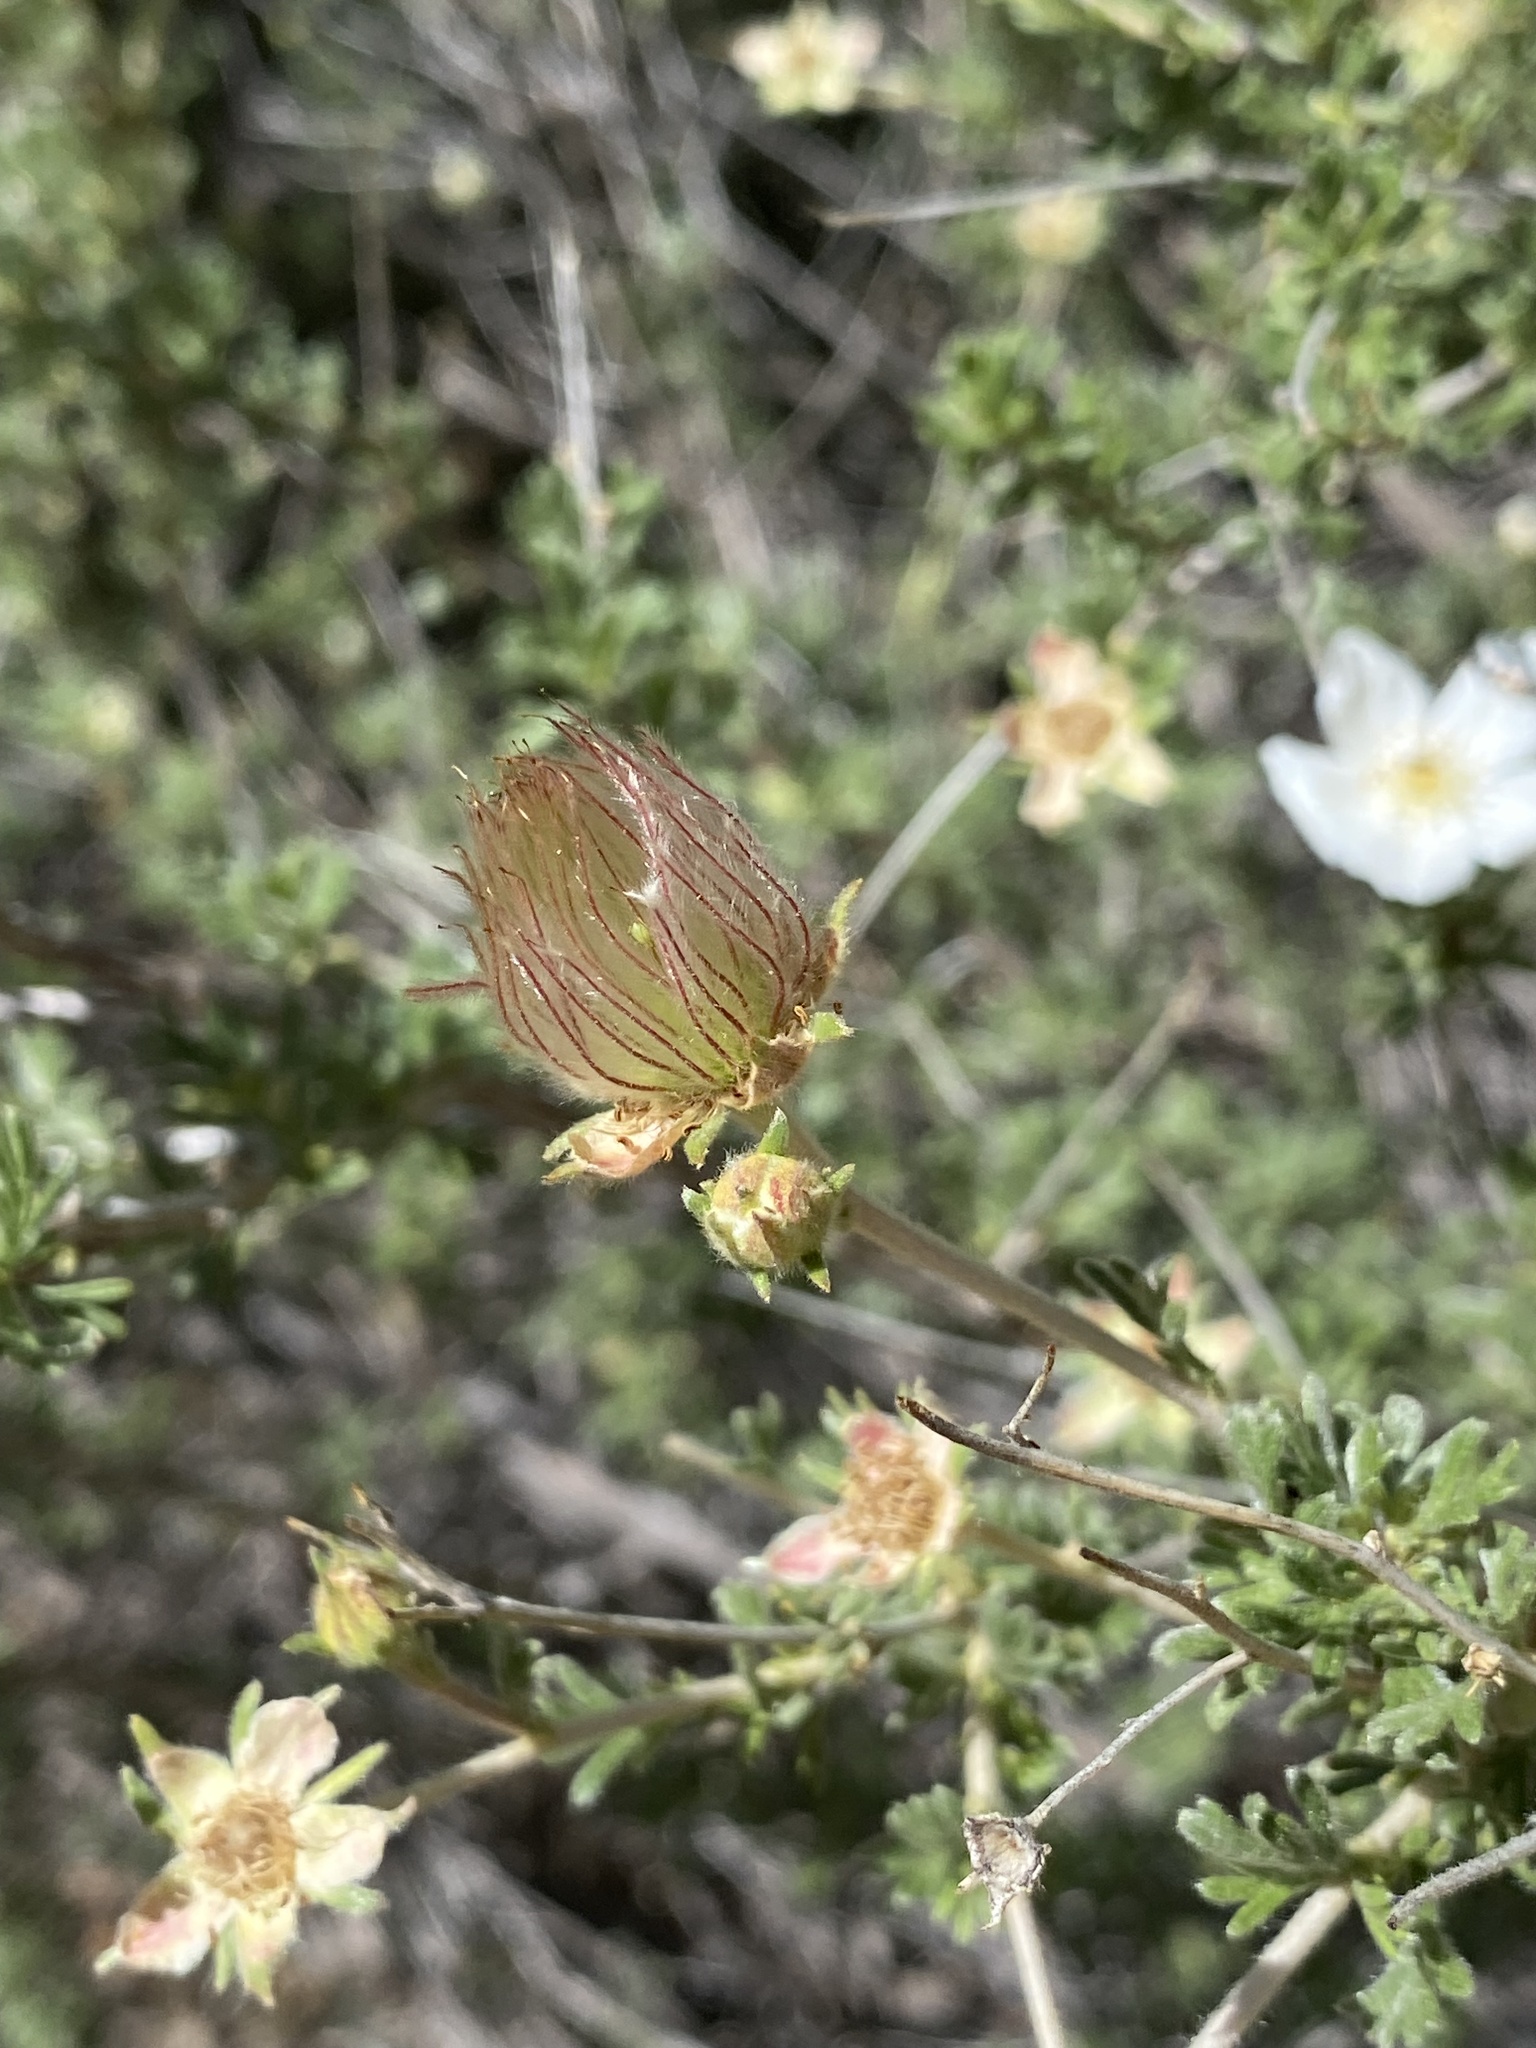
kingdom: Plantae
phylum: Tracheophyta
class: Magnoliopsida
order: Rosales
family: Rosaceae
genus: Fallugia
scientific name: Fallugia paradoxa
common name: Apache-plume
